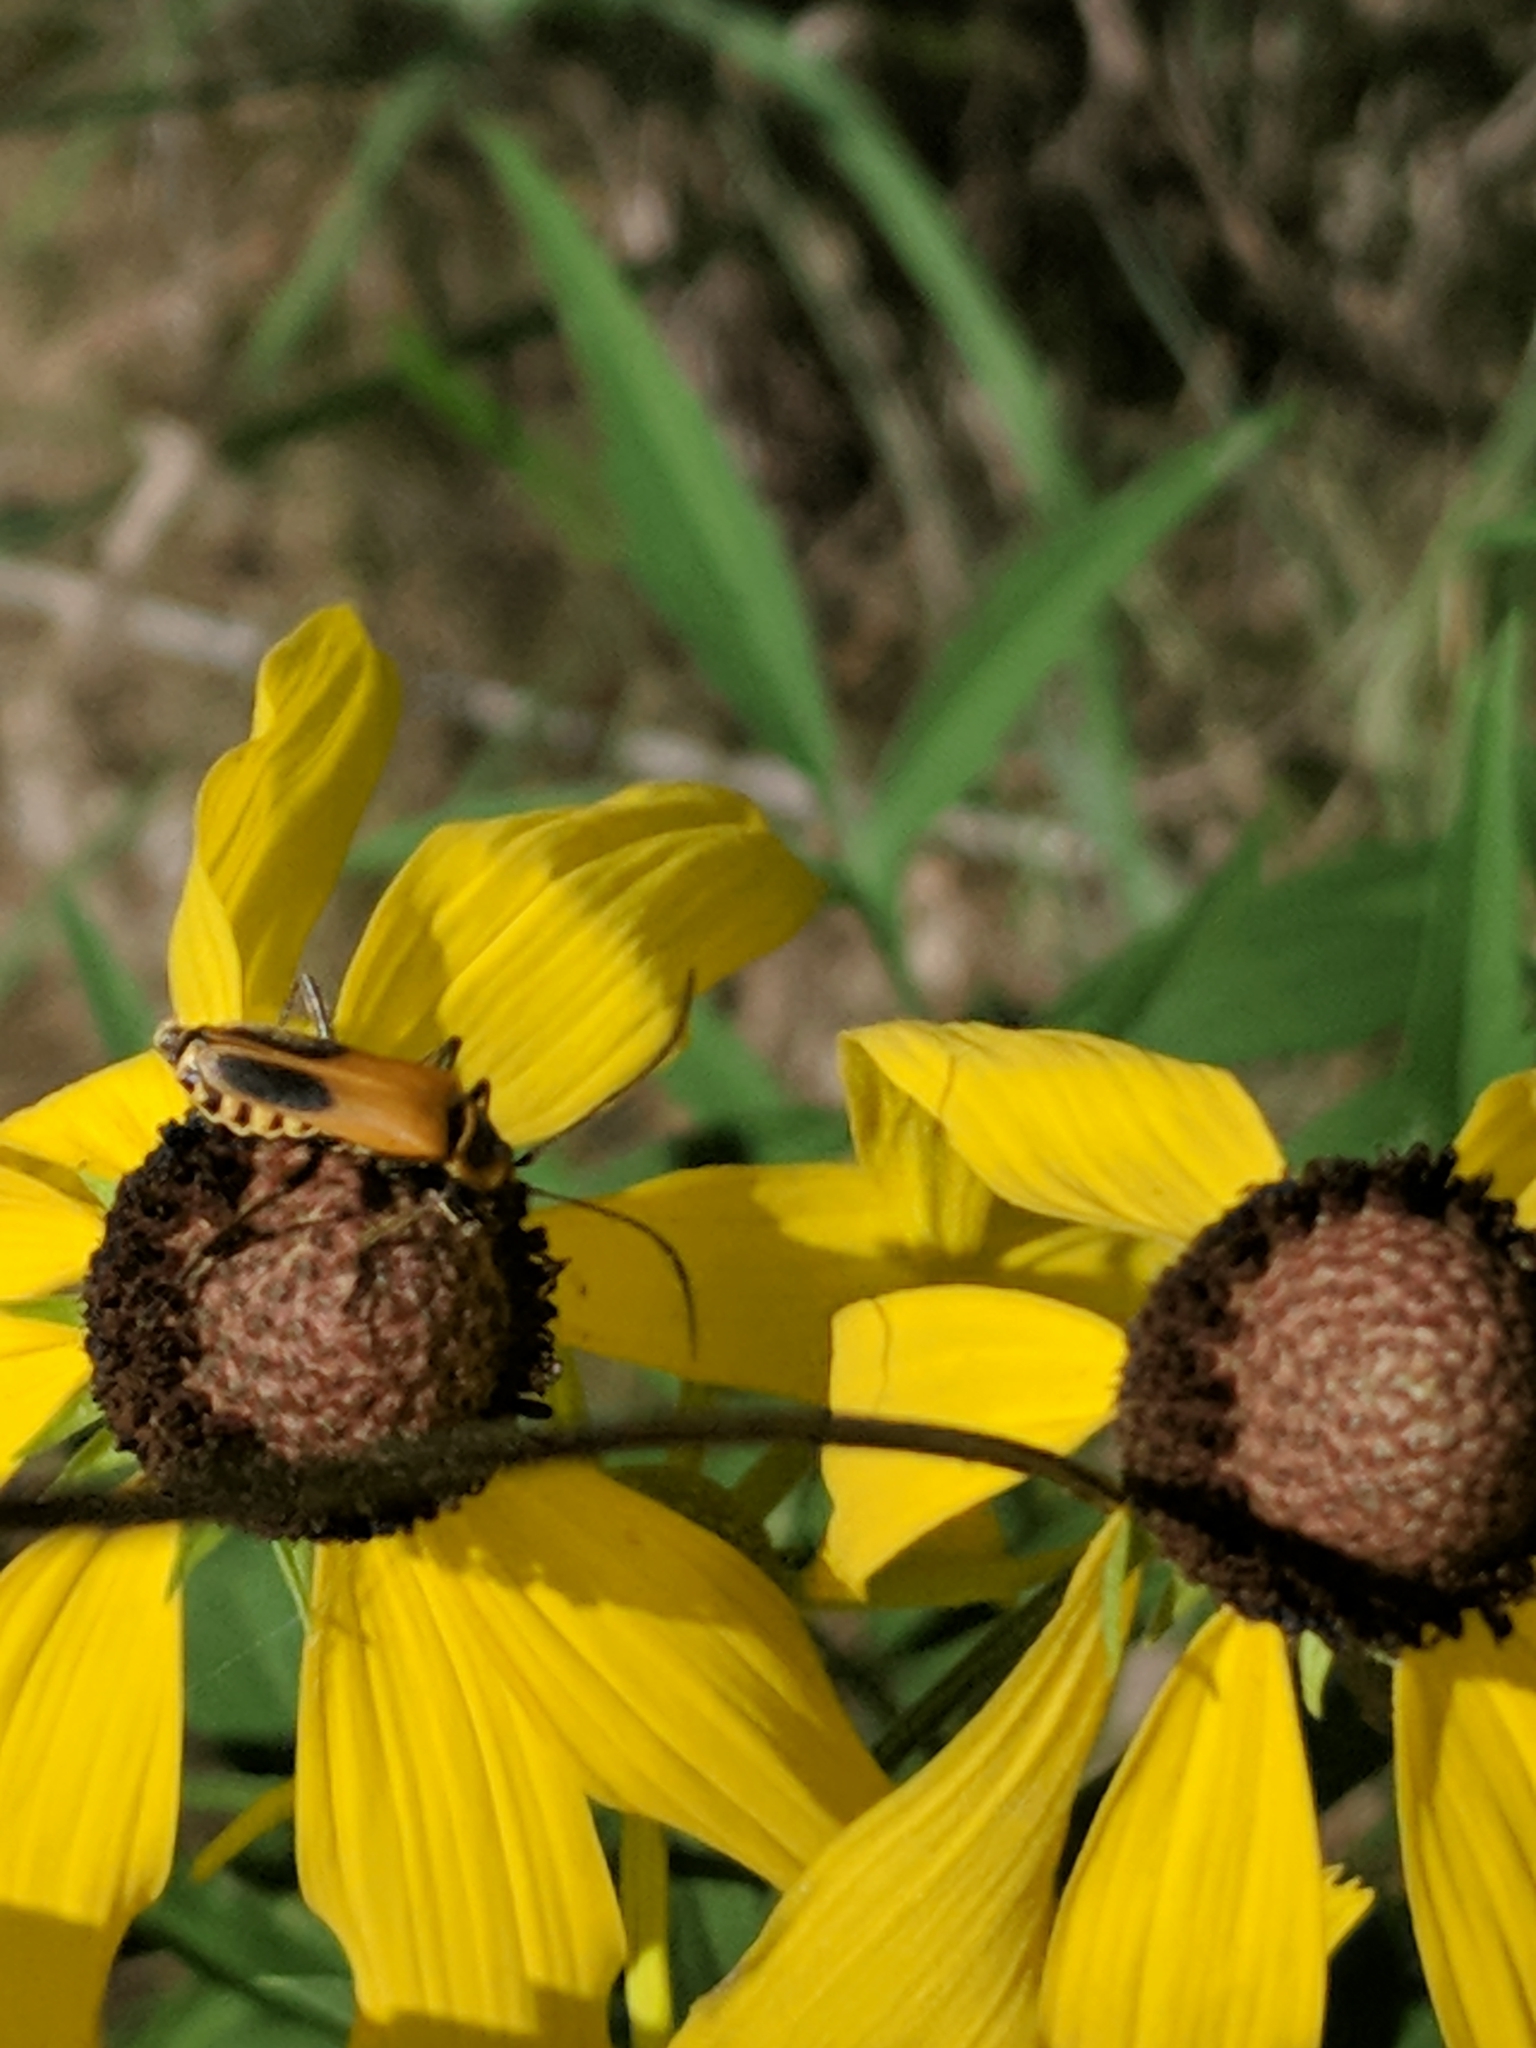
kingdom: Animalia
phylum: Arthropoda
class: Insecta
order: Coleoptera
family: Cantharidae
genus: Chauliognathus
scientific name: Chauliognathus pensylvanicus
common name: Goldenrod soldier beetle
